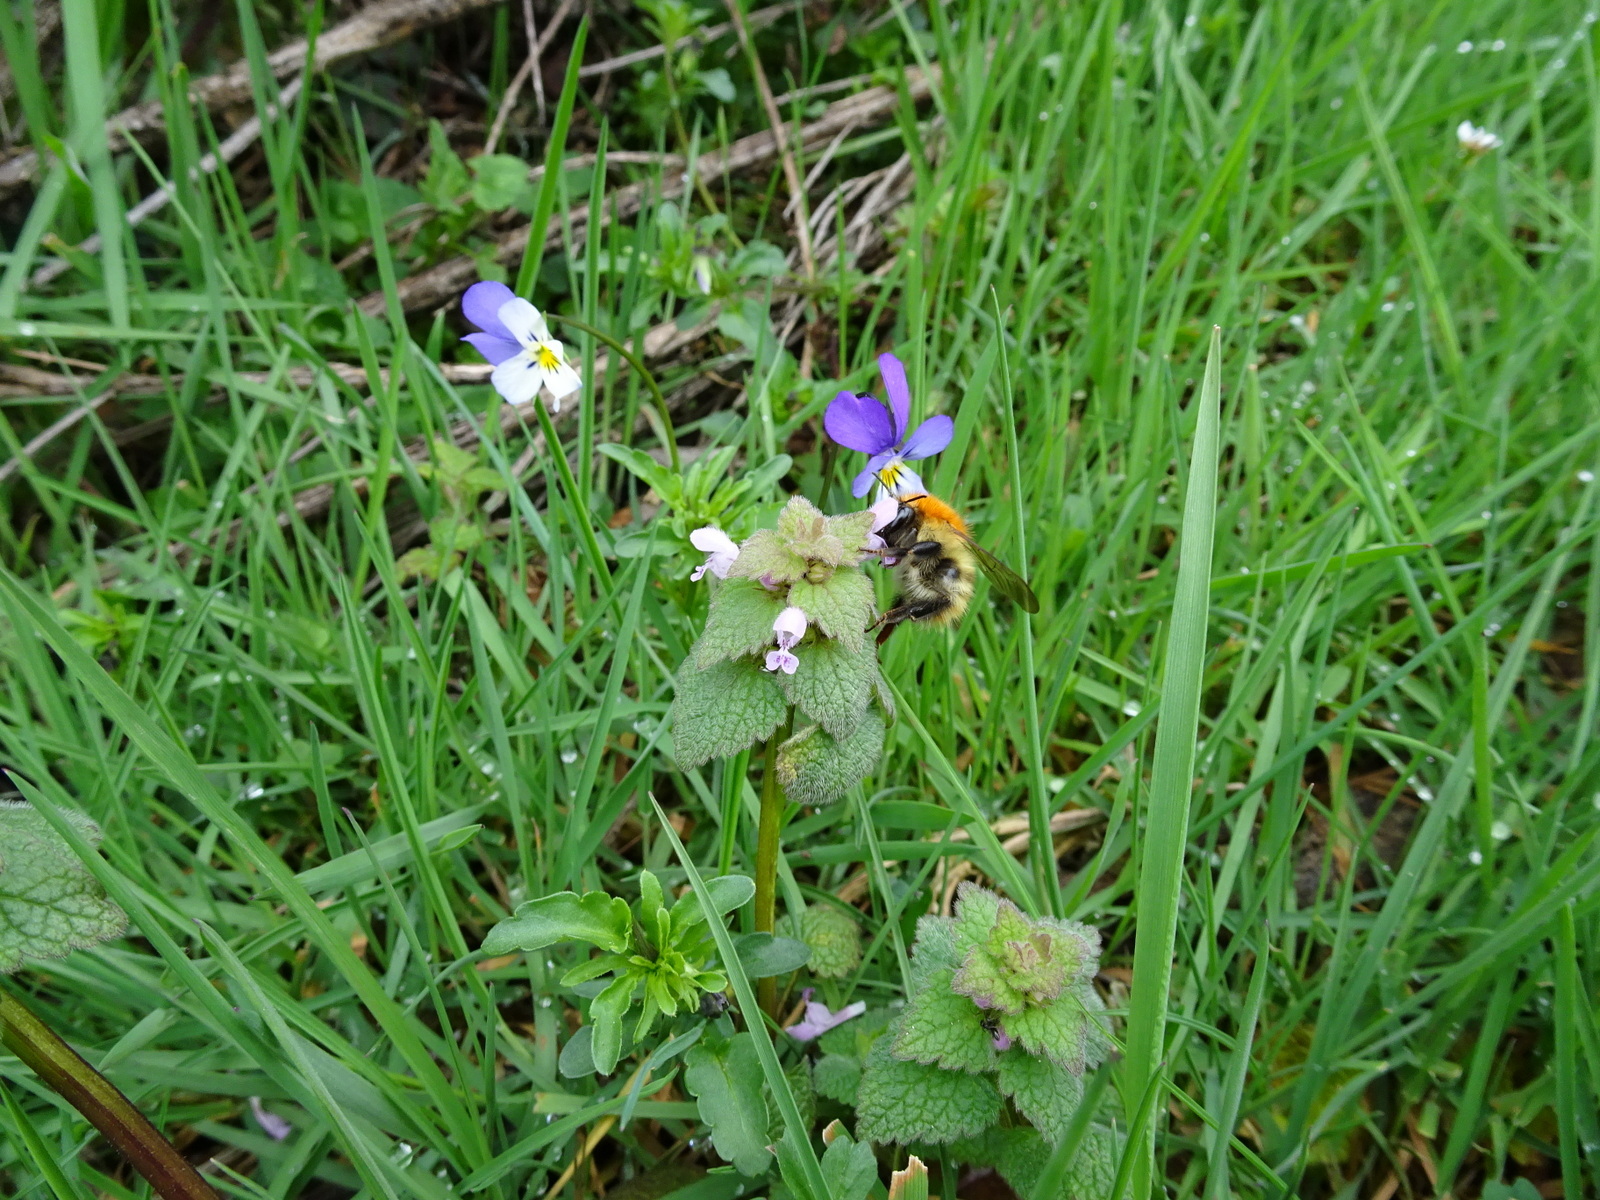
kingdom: Animalia
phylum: Arthropoda
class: Insecta
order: Hymenoptera
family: Apidae
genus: Bombus
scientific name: Bombus pascuorum
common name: Common carder bee
